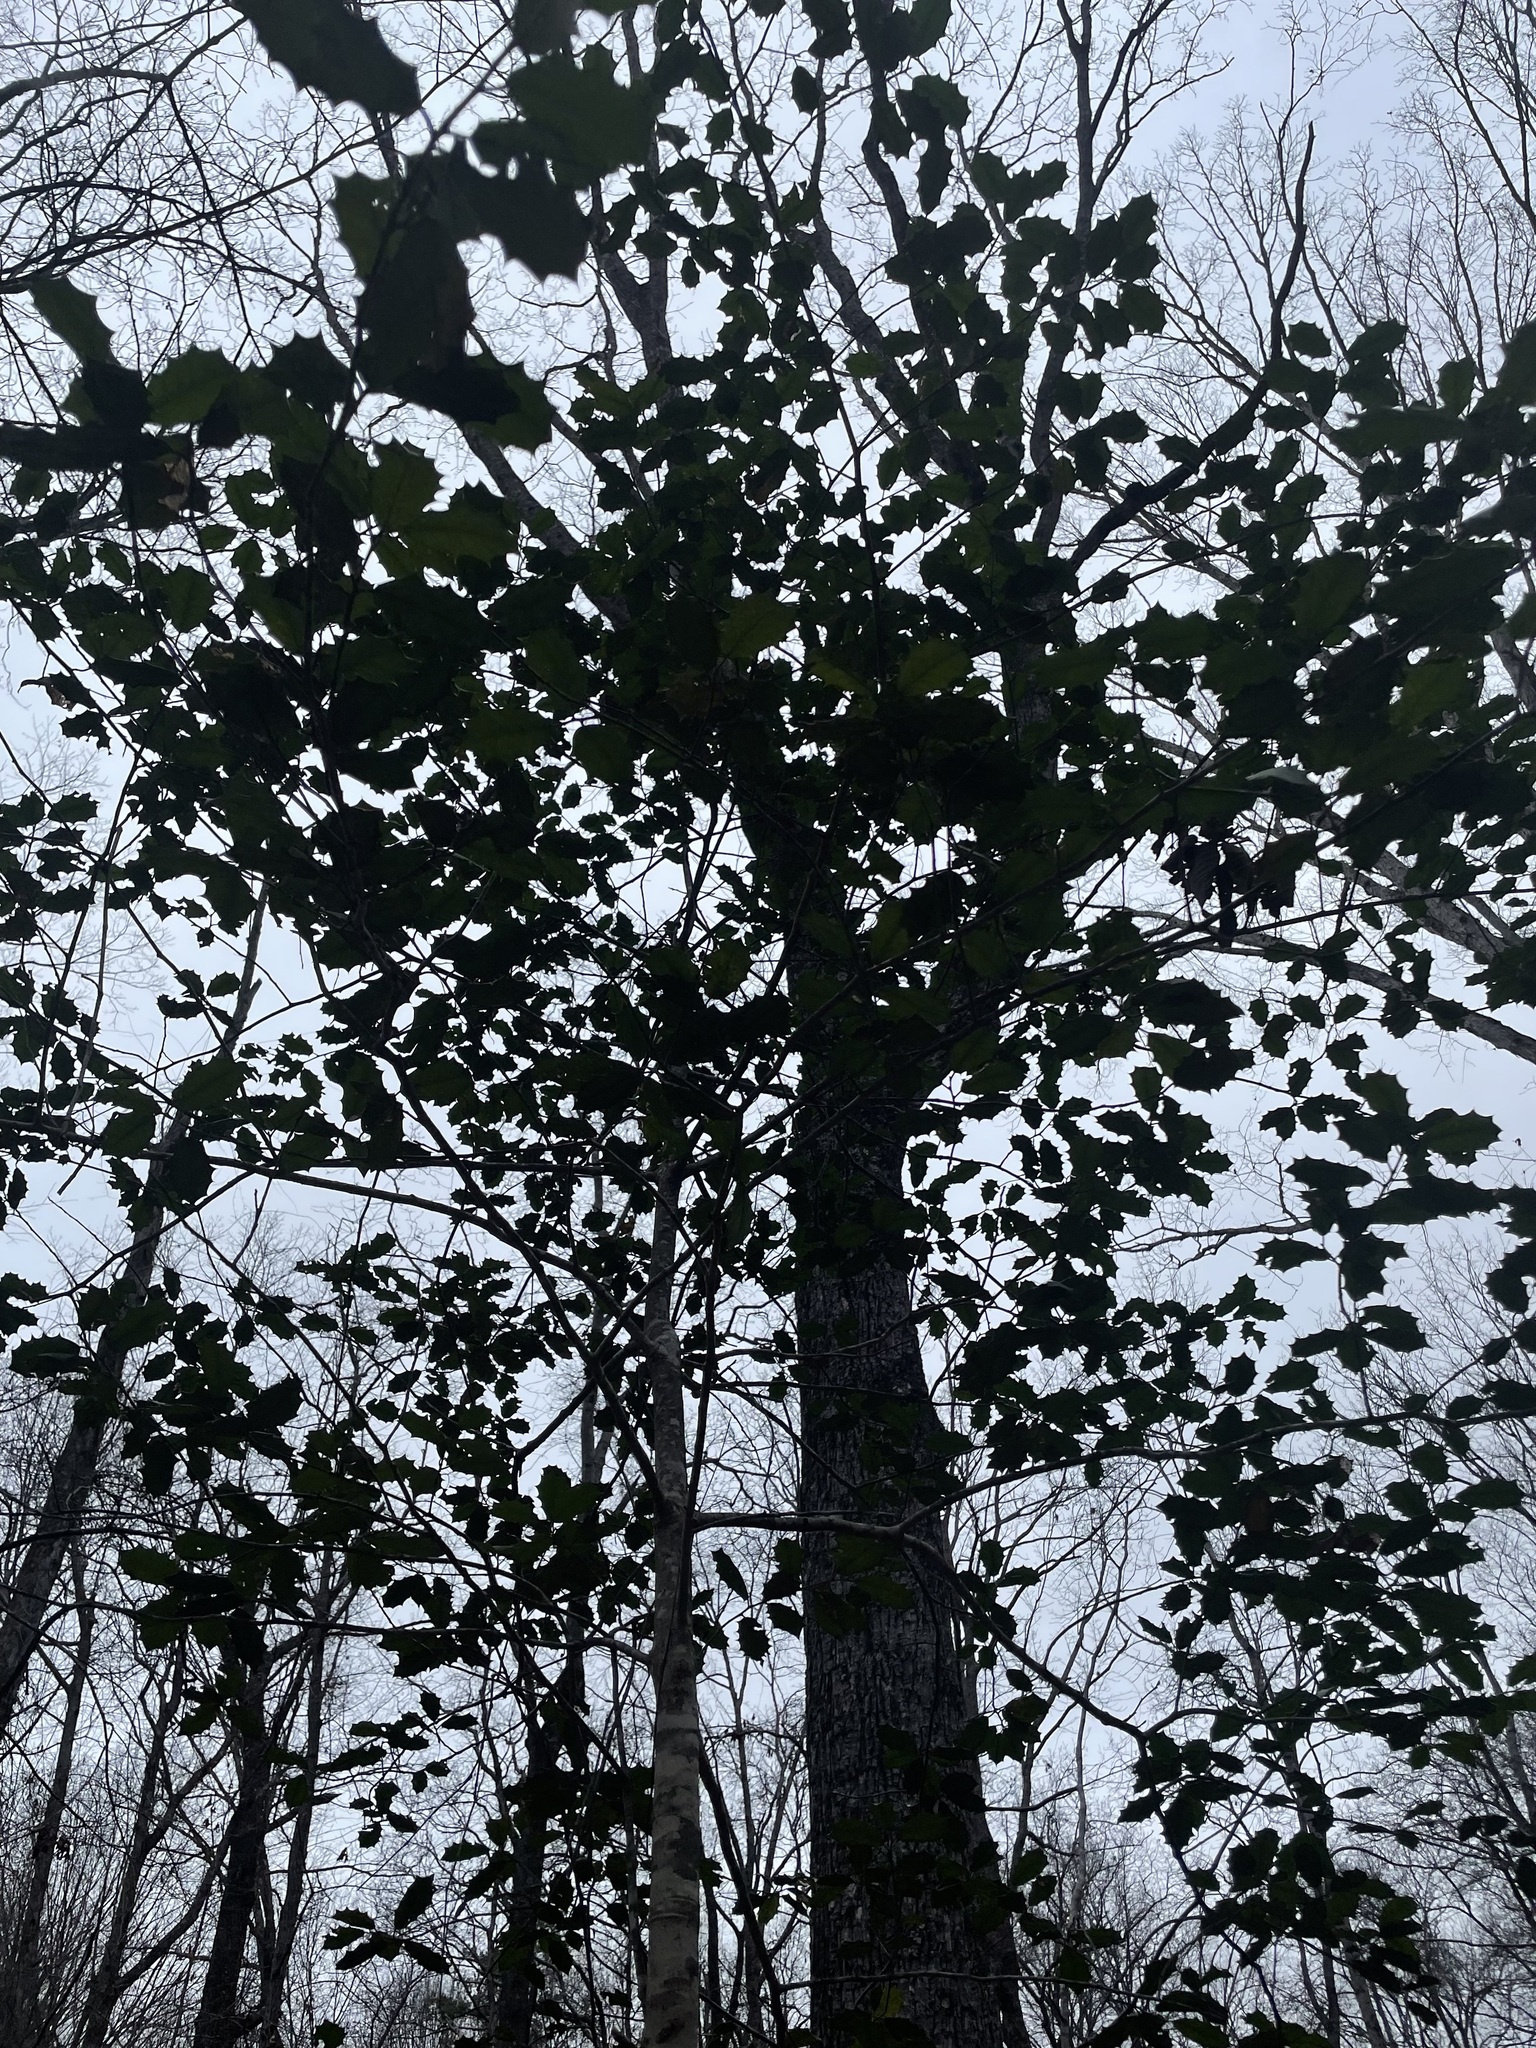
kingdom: Plantae
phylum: Tracheophyta
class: Magnoliopsida
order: Aquifoliales
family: Aquifoliaceae
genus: Ilex
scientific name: Ilex opaca
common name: American holly
